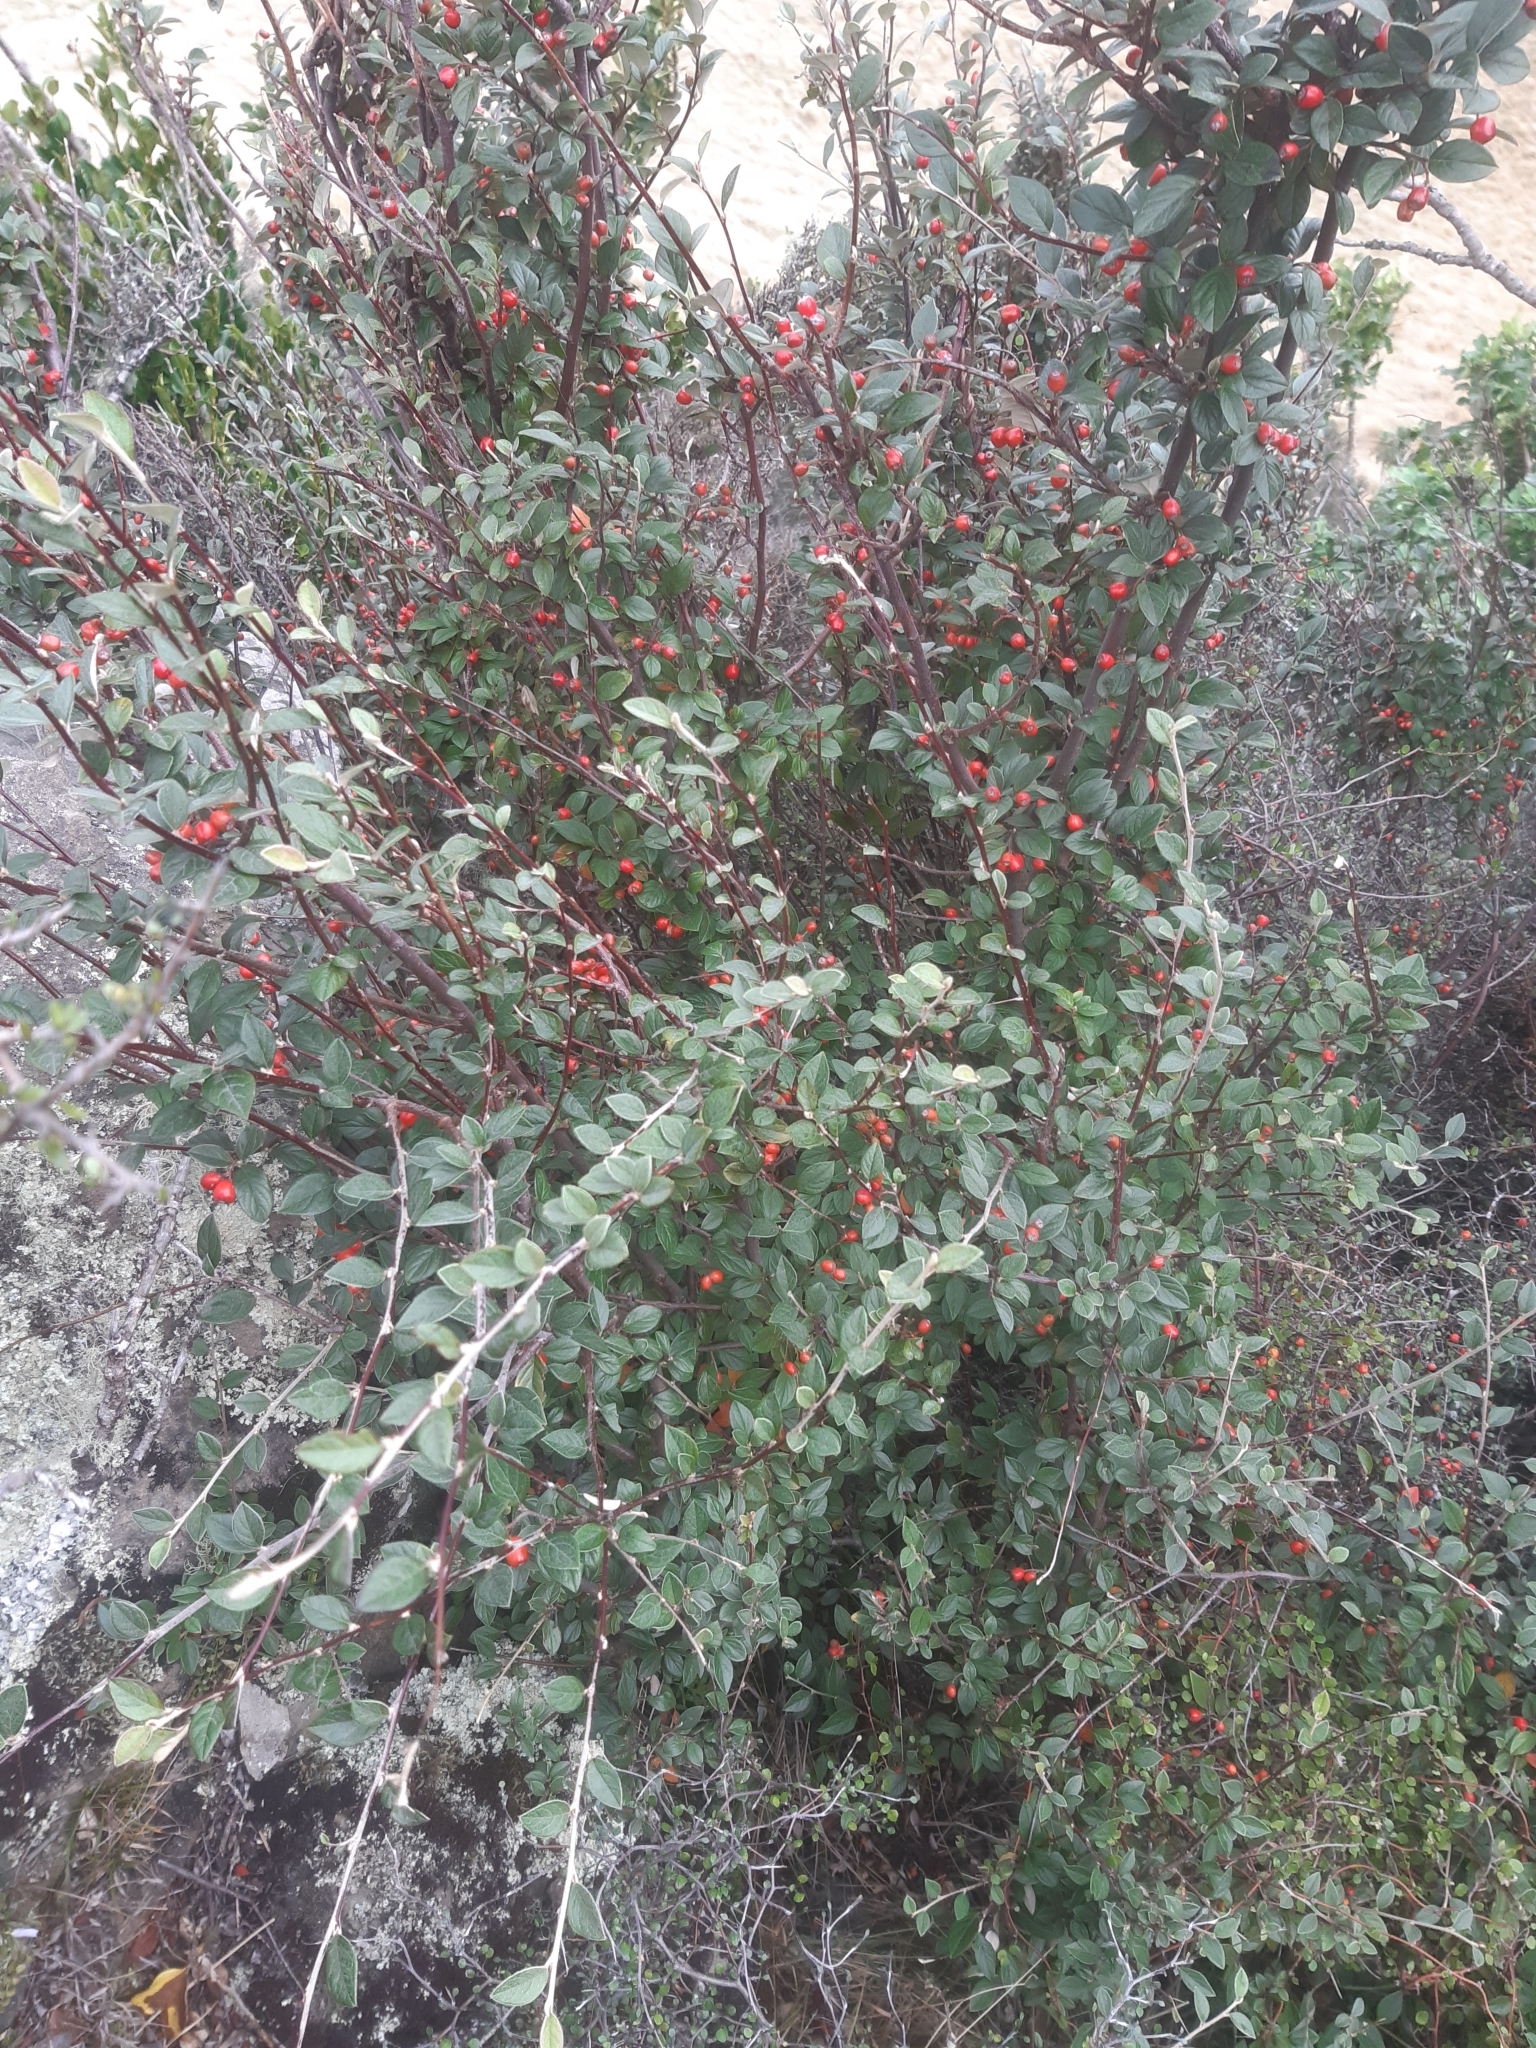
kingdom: Plantae
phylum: Tracheophyta
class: Magnoliopsida
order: Rosales
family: Rosaceae
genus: Cotoneaster
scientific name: Cotoneaster franchetii
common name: Franchet's cotoneaster
